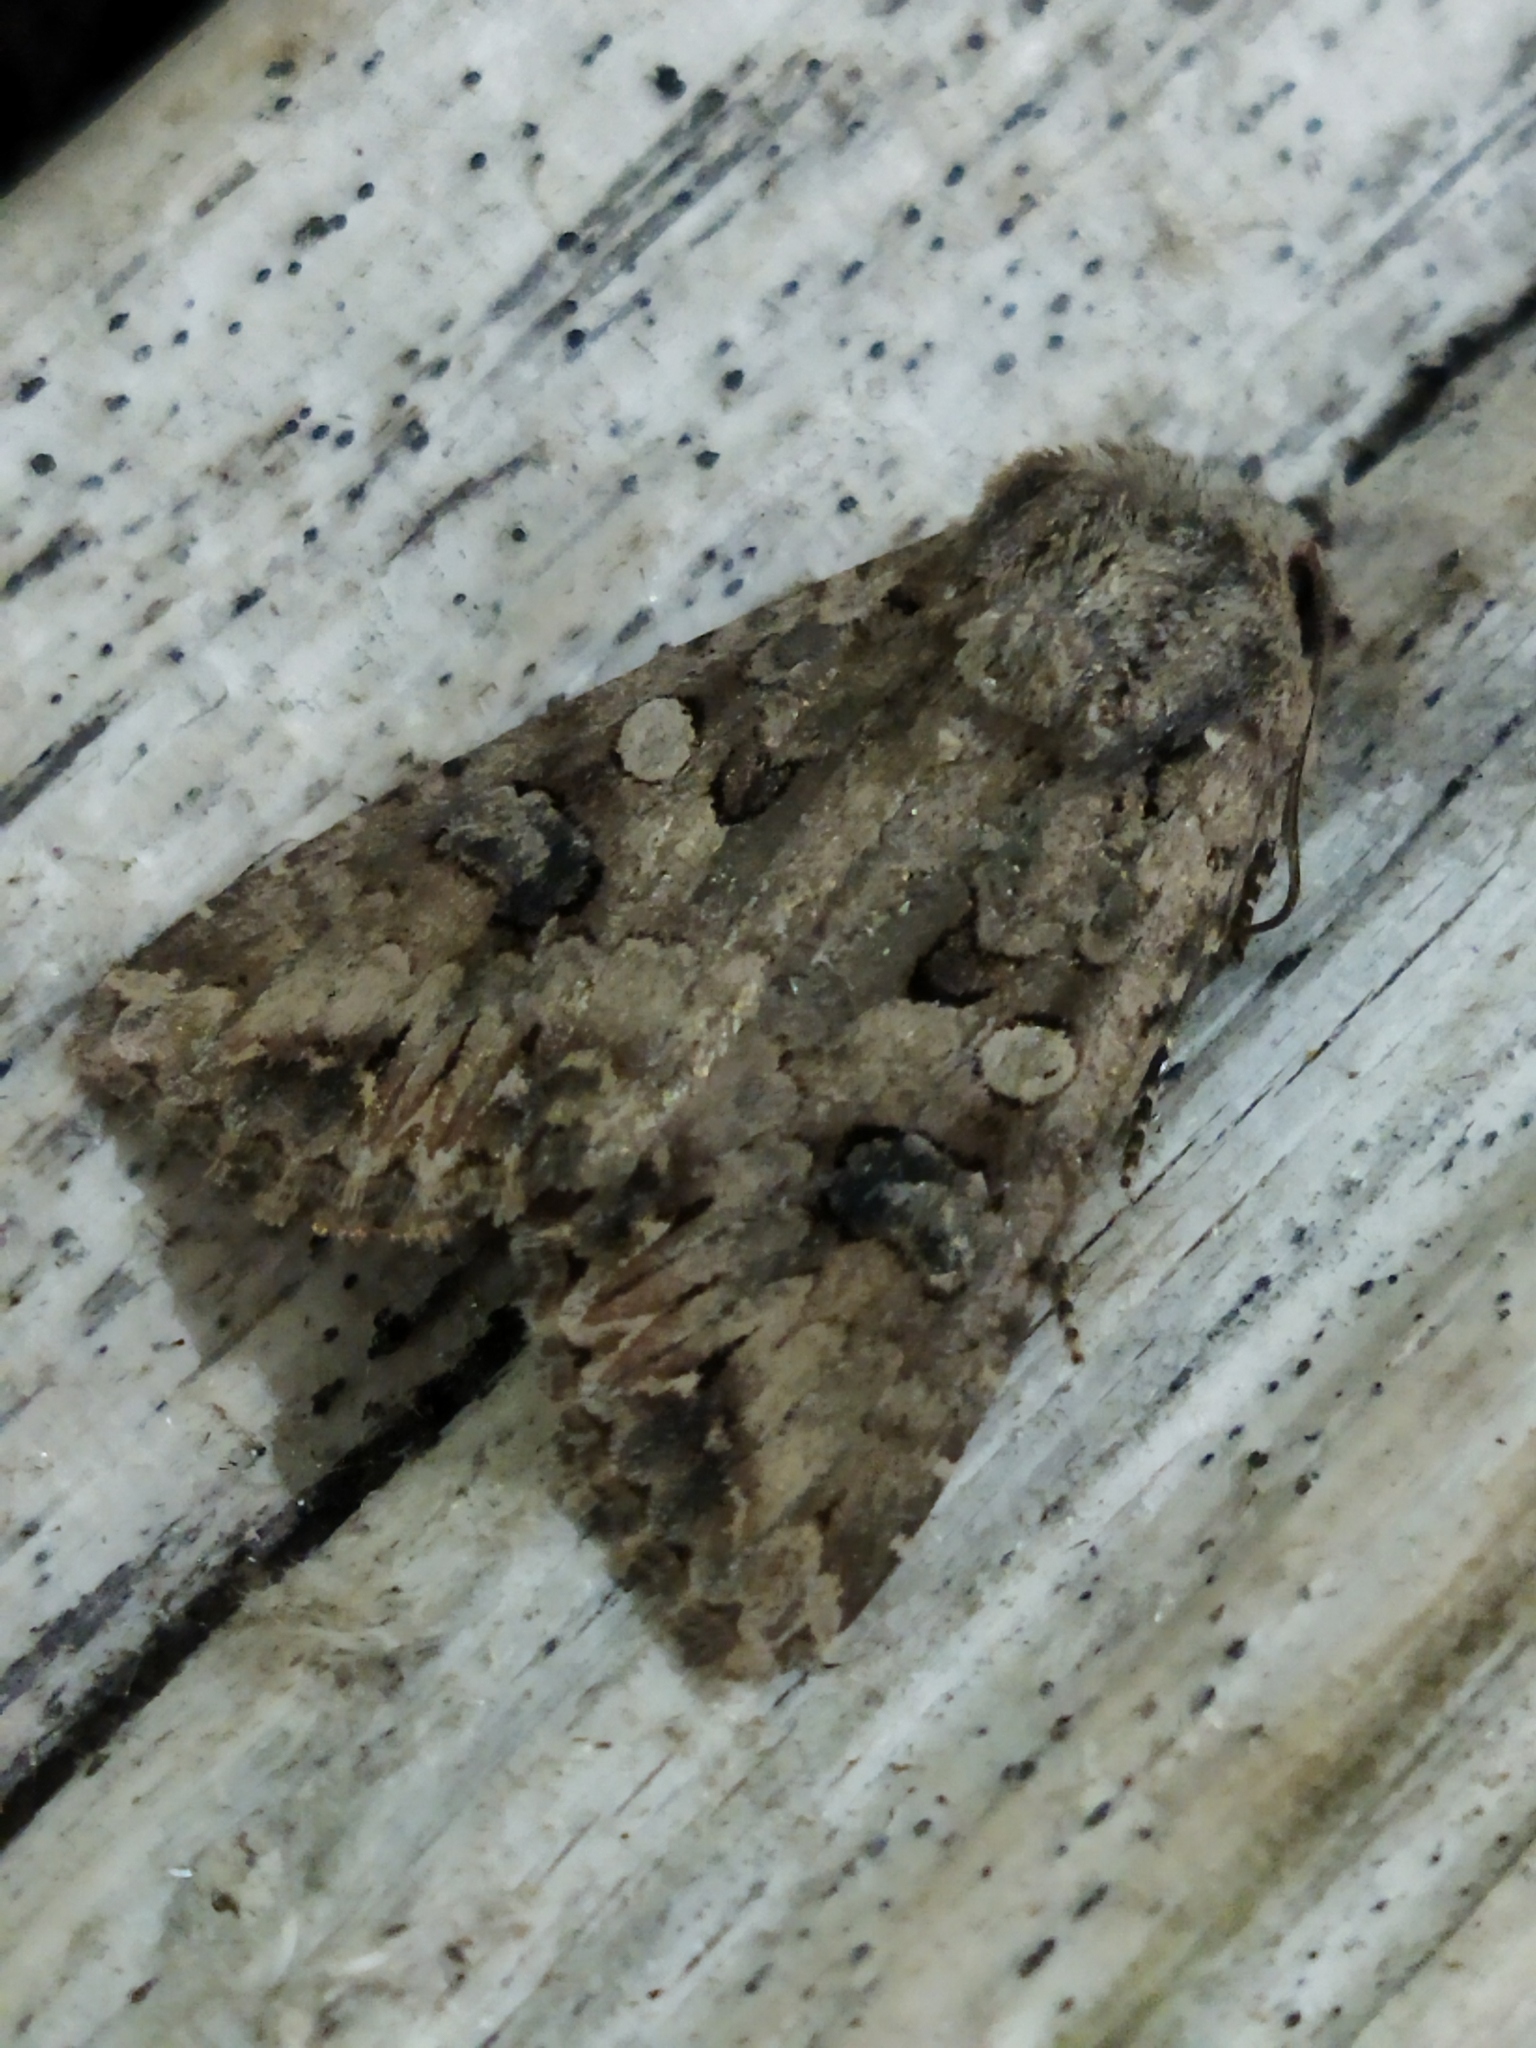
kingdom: Animalia
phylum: Arthropoda
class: Insecta
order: Lepidoptera
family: Noctuidae
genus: Anarta
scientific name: Anarta pugnax
